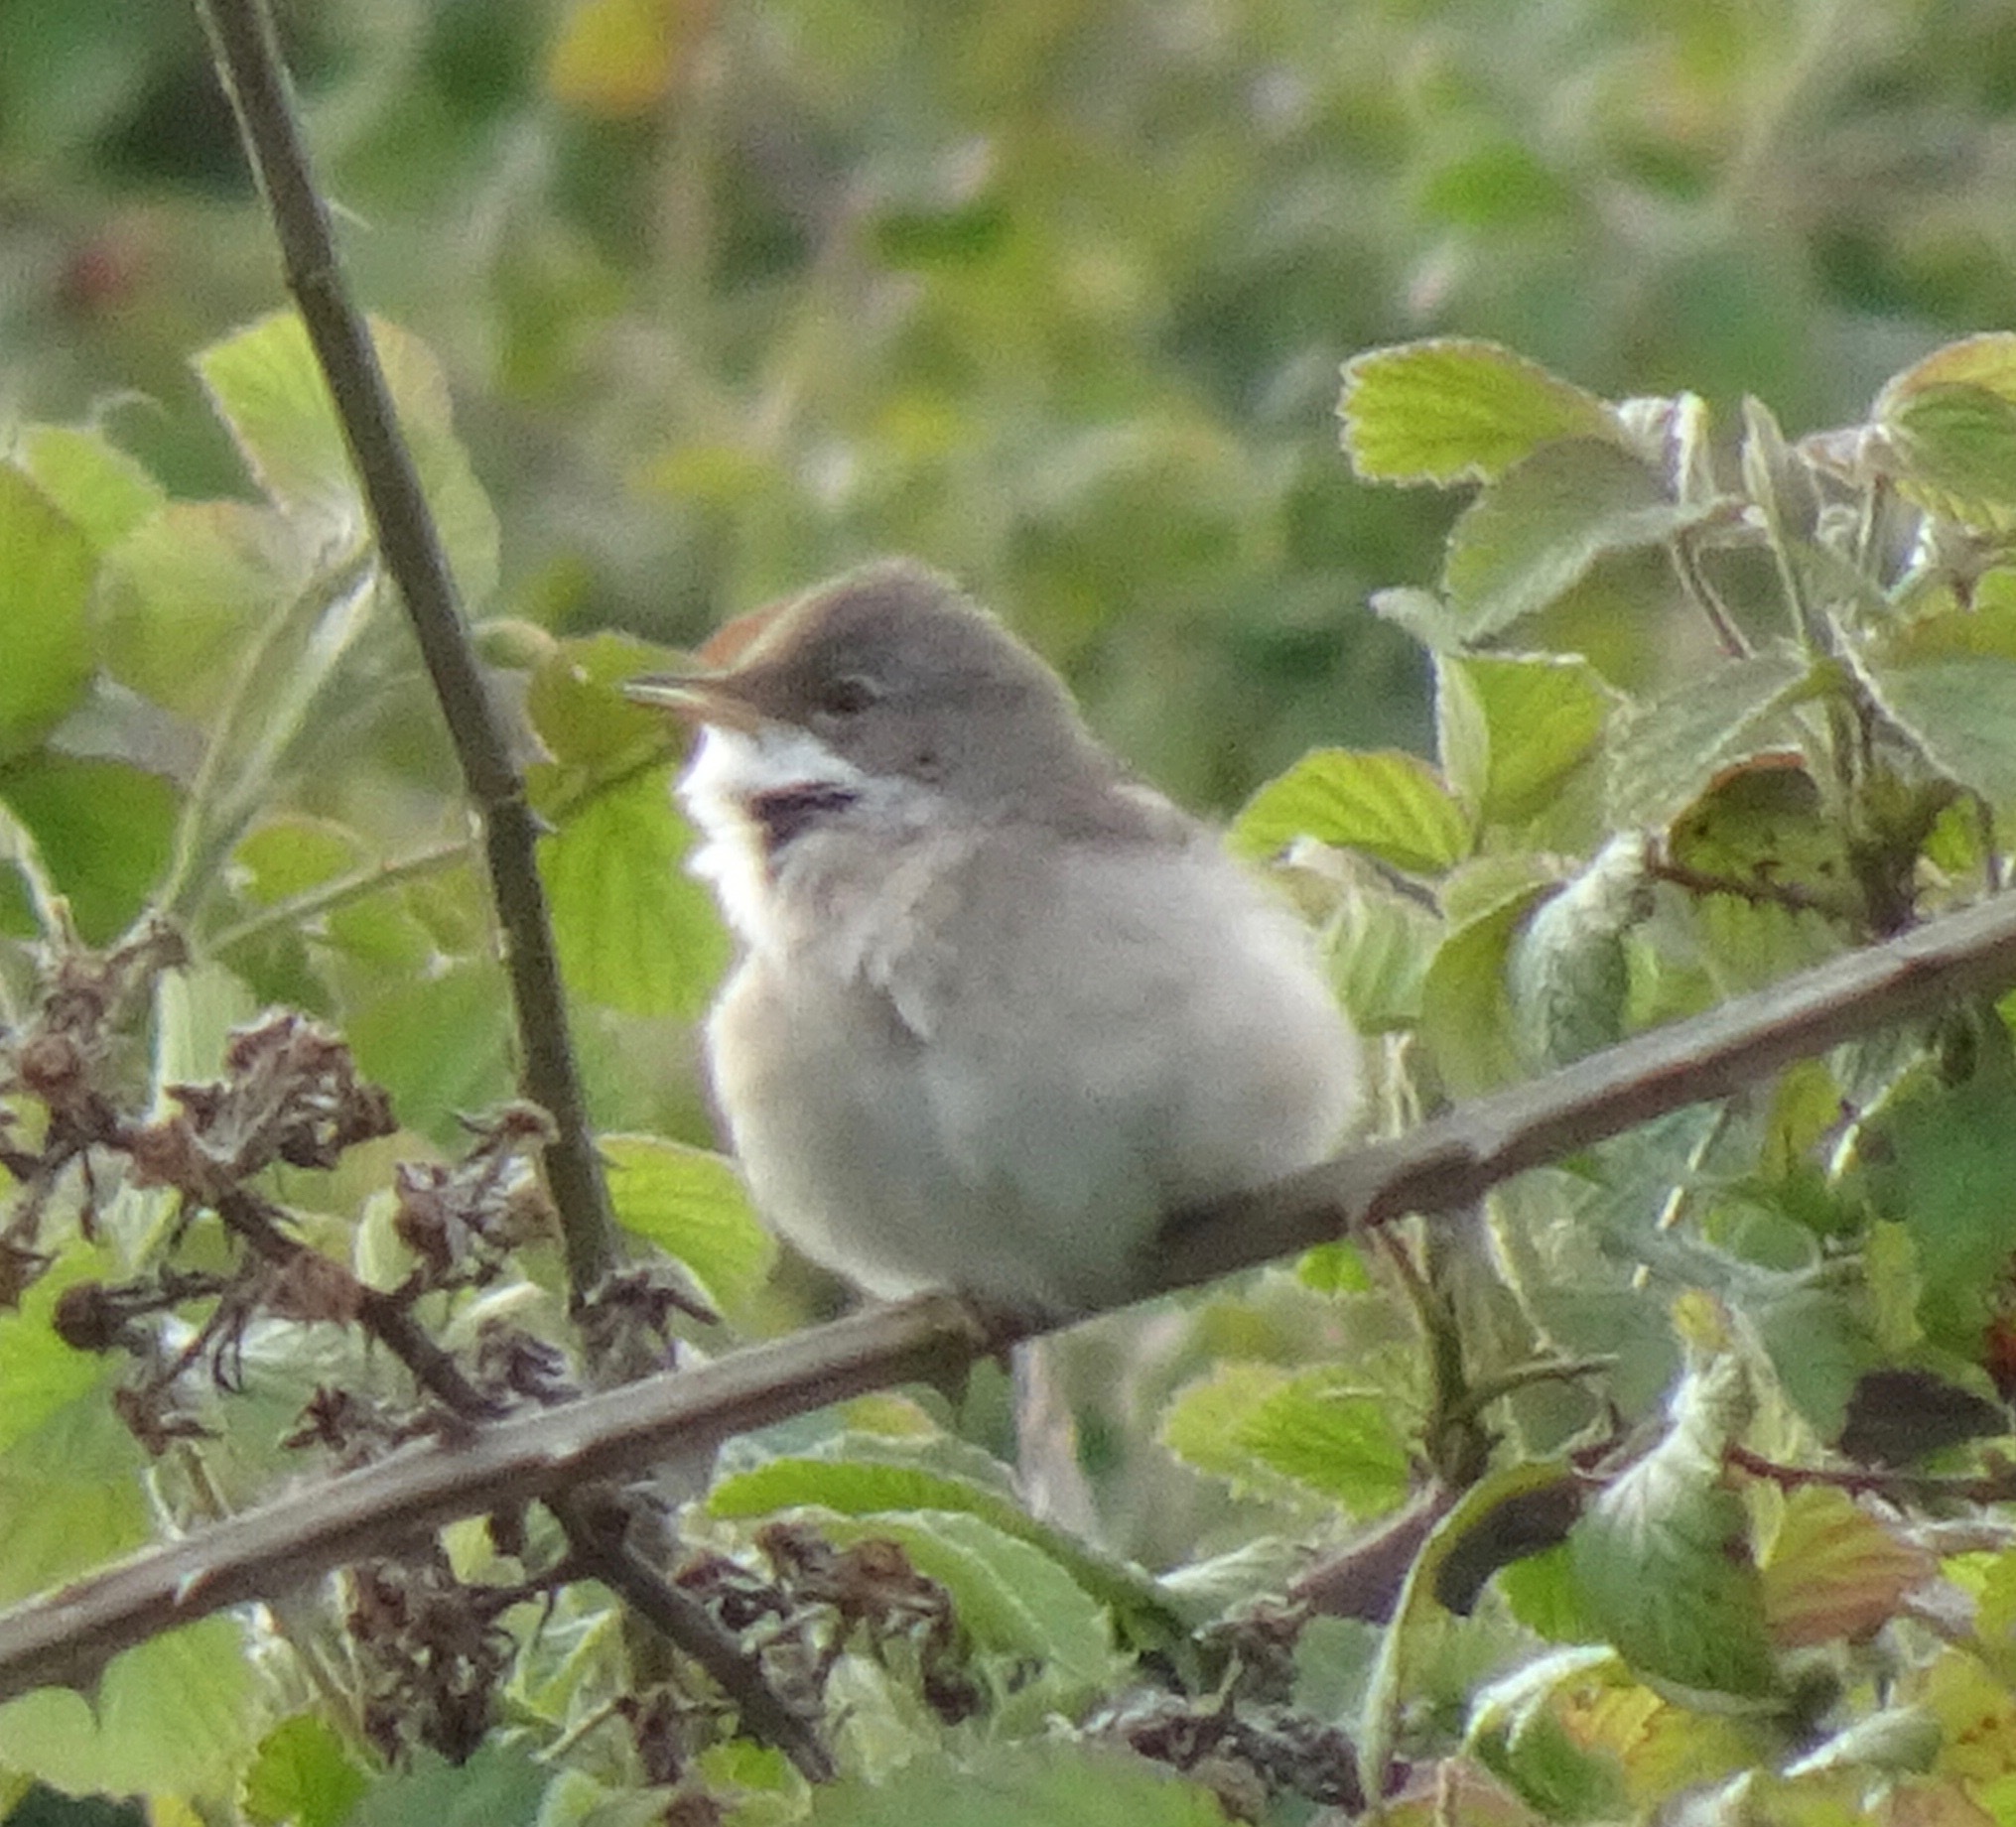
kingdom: Animalia
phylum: Chordata
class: Aves
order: Passeriformes
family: Sylviidae
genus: Sylvia
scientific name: Sylvia communis
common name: Common whitethroat
